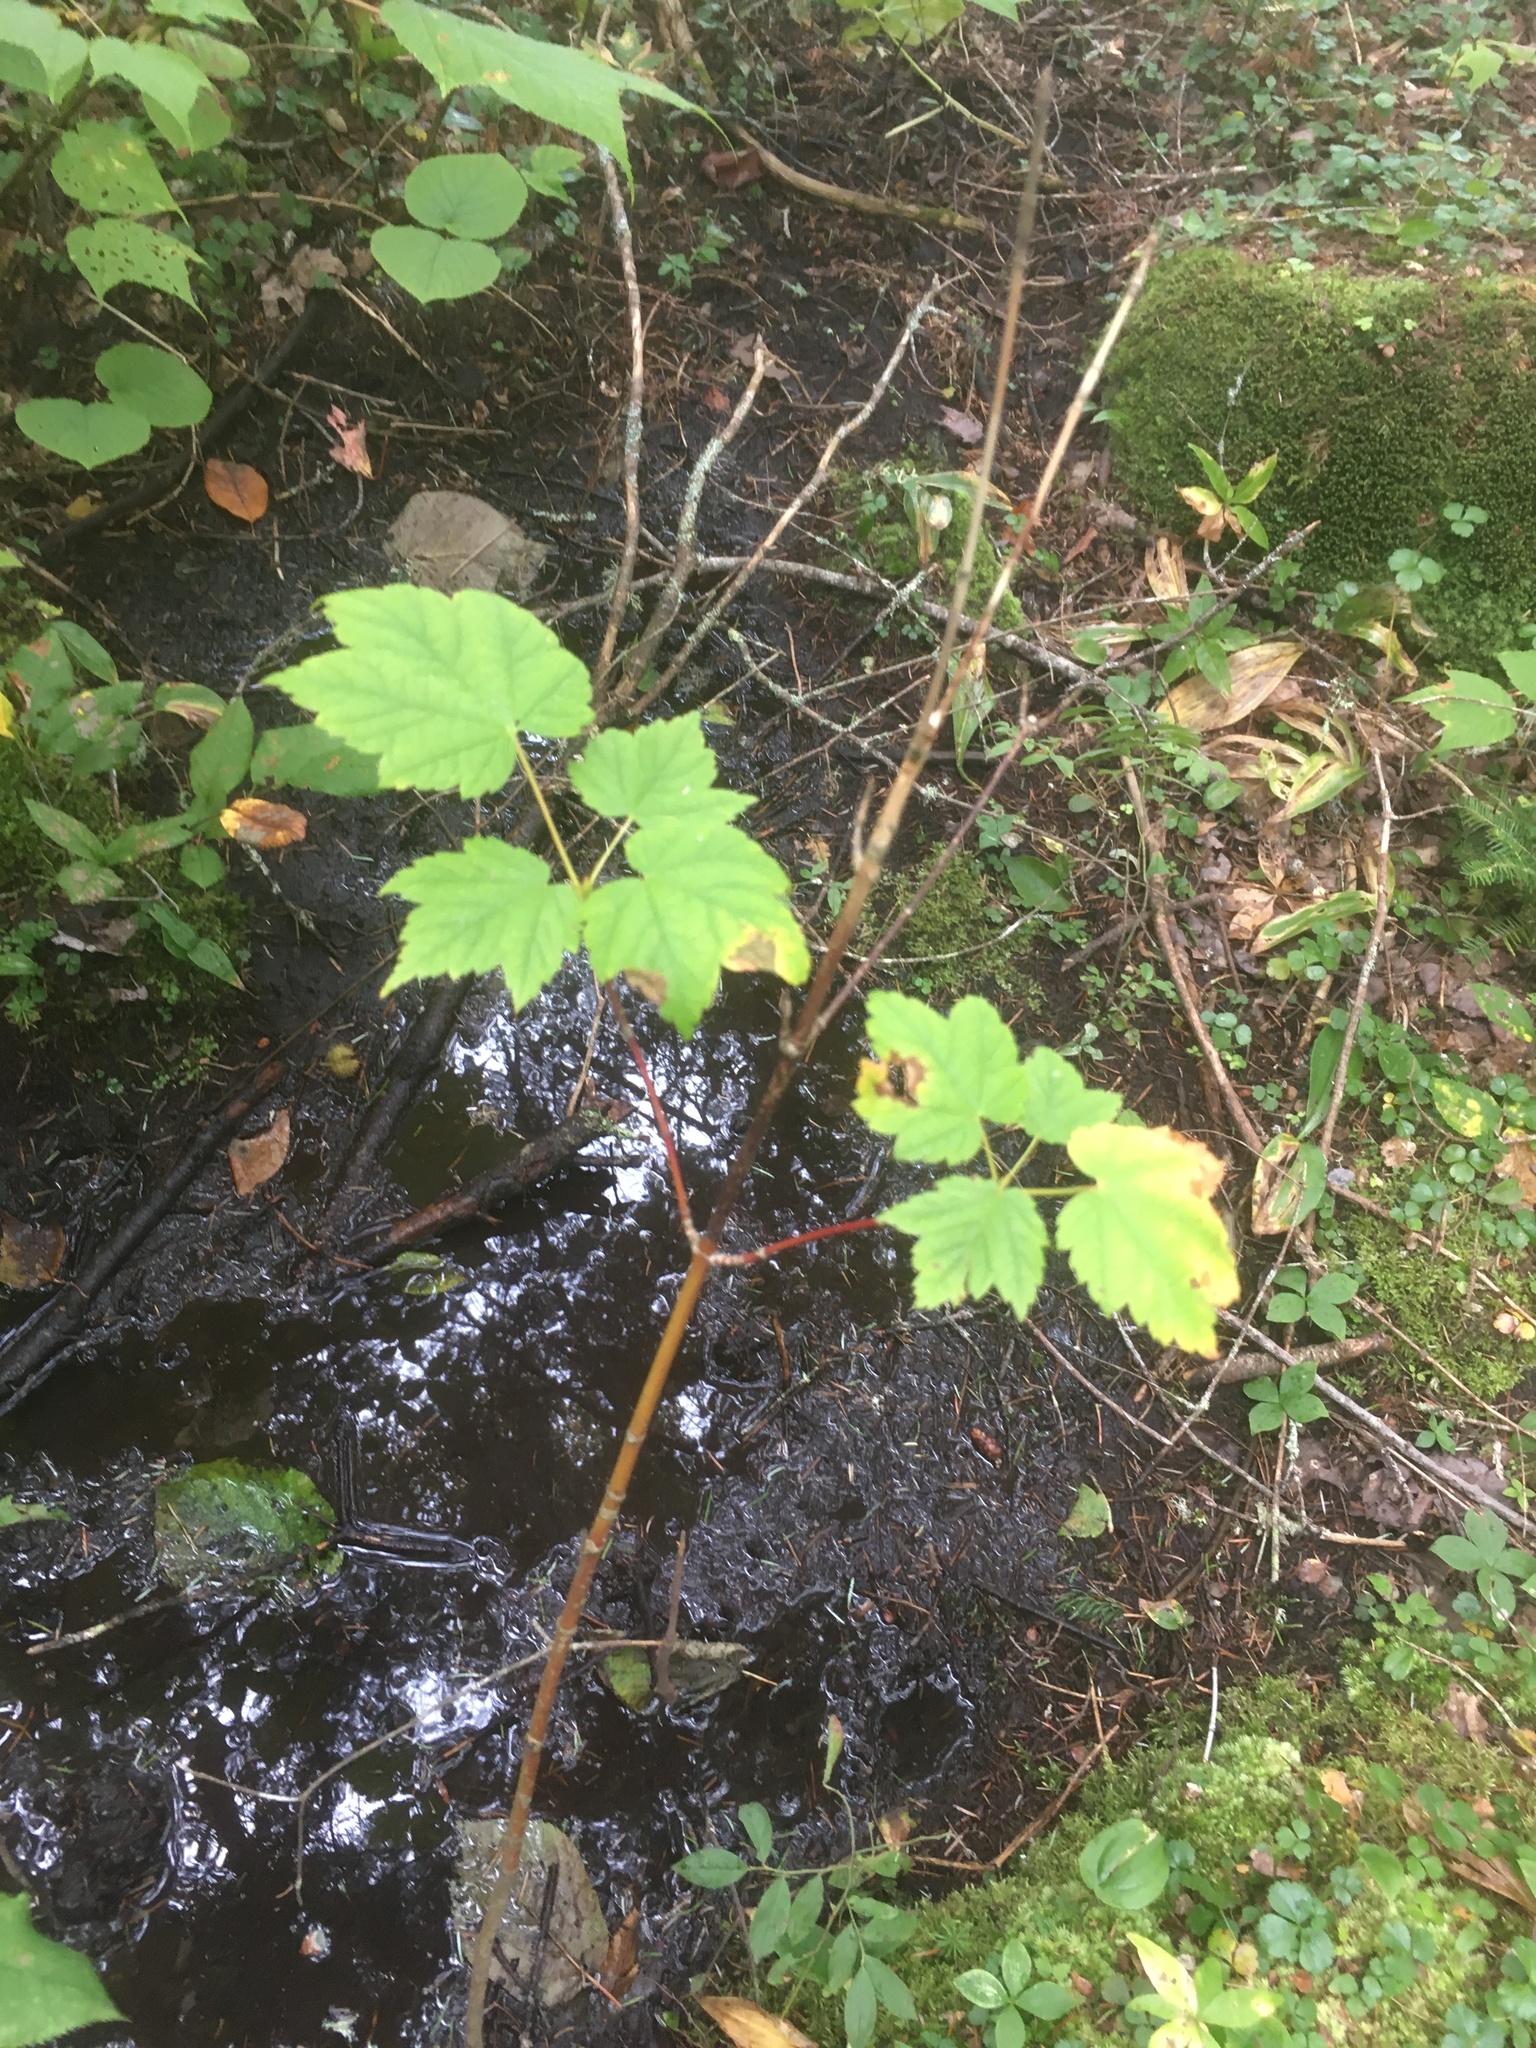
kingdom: Plantae
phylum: Tracheophyta
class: Magnoliopsida
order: Sapindales
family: Sapindaceae
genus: Acer
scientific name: Acer spicatum
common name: Mountain maple
